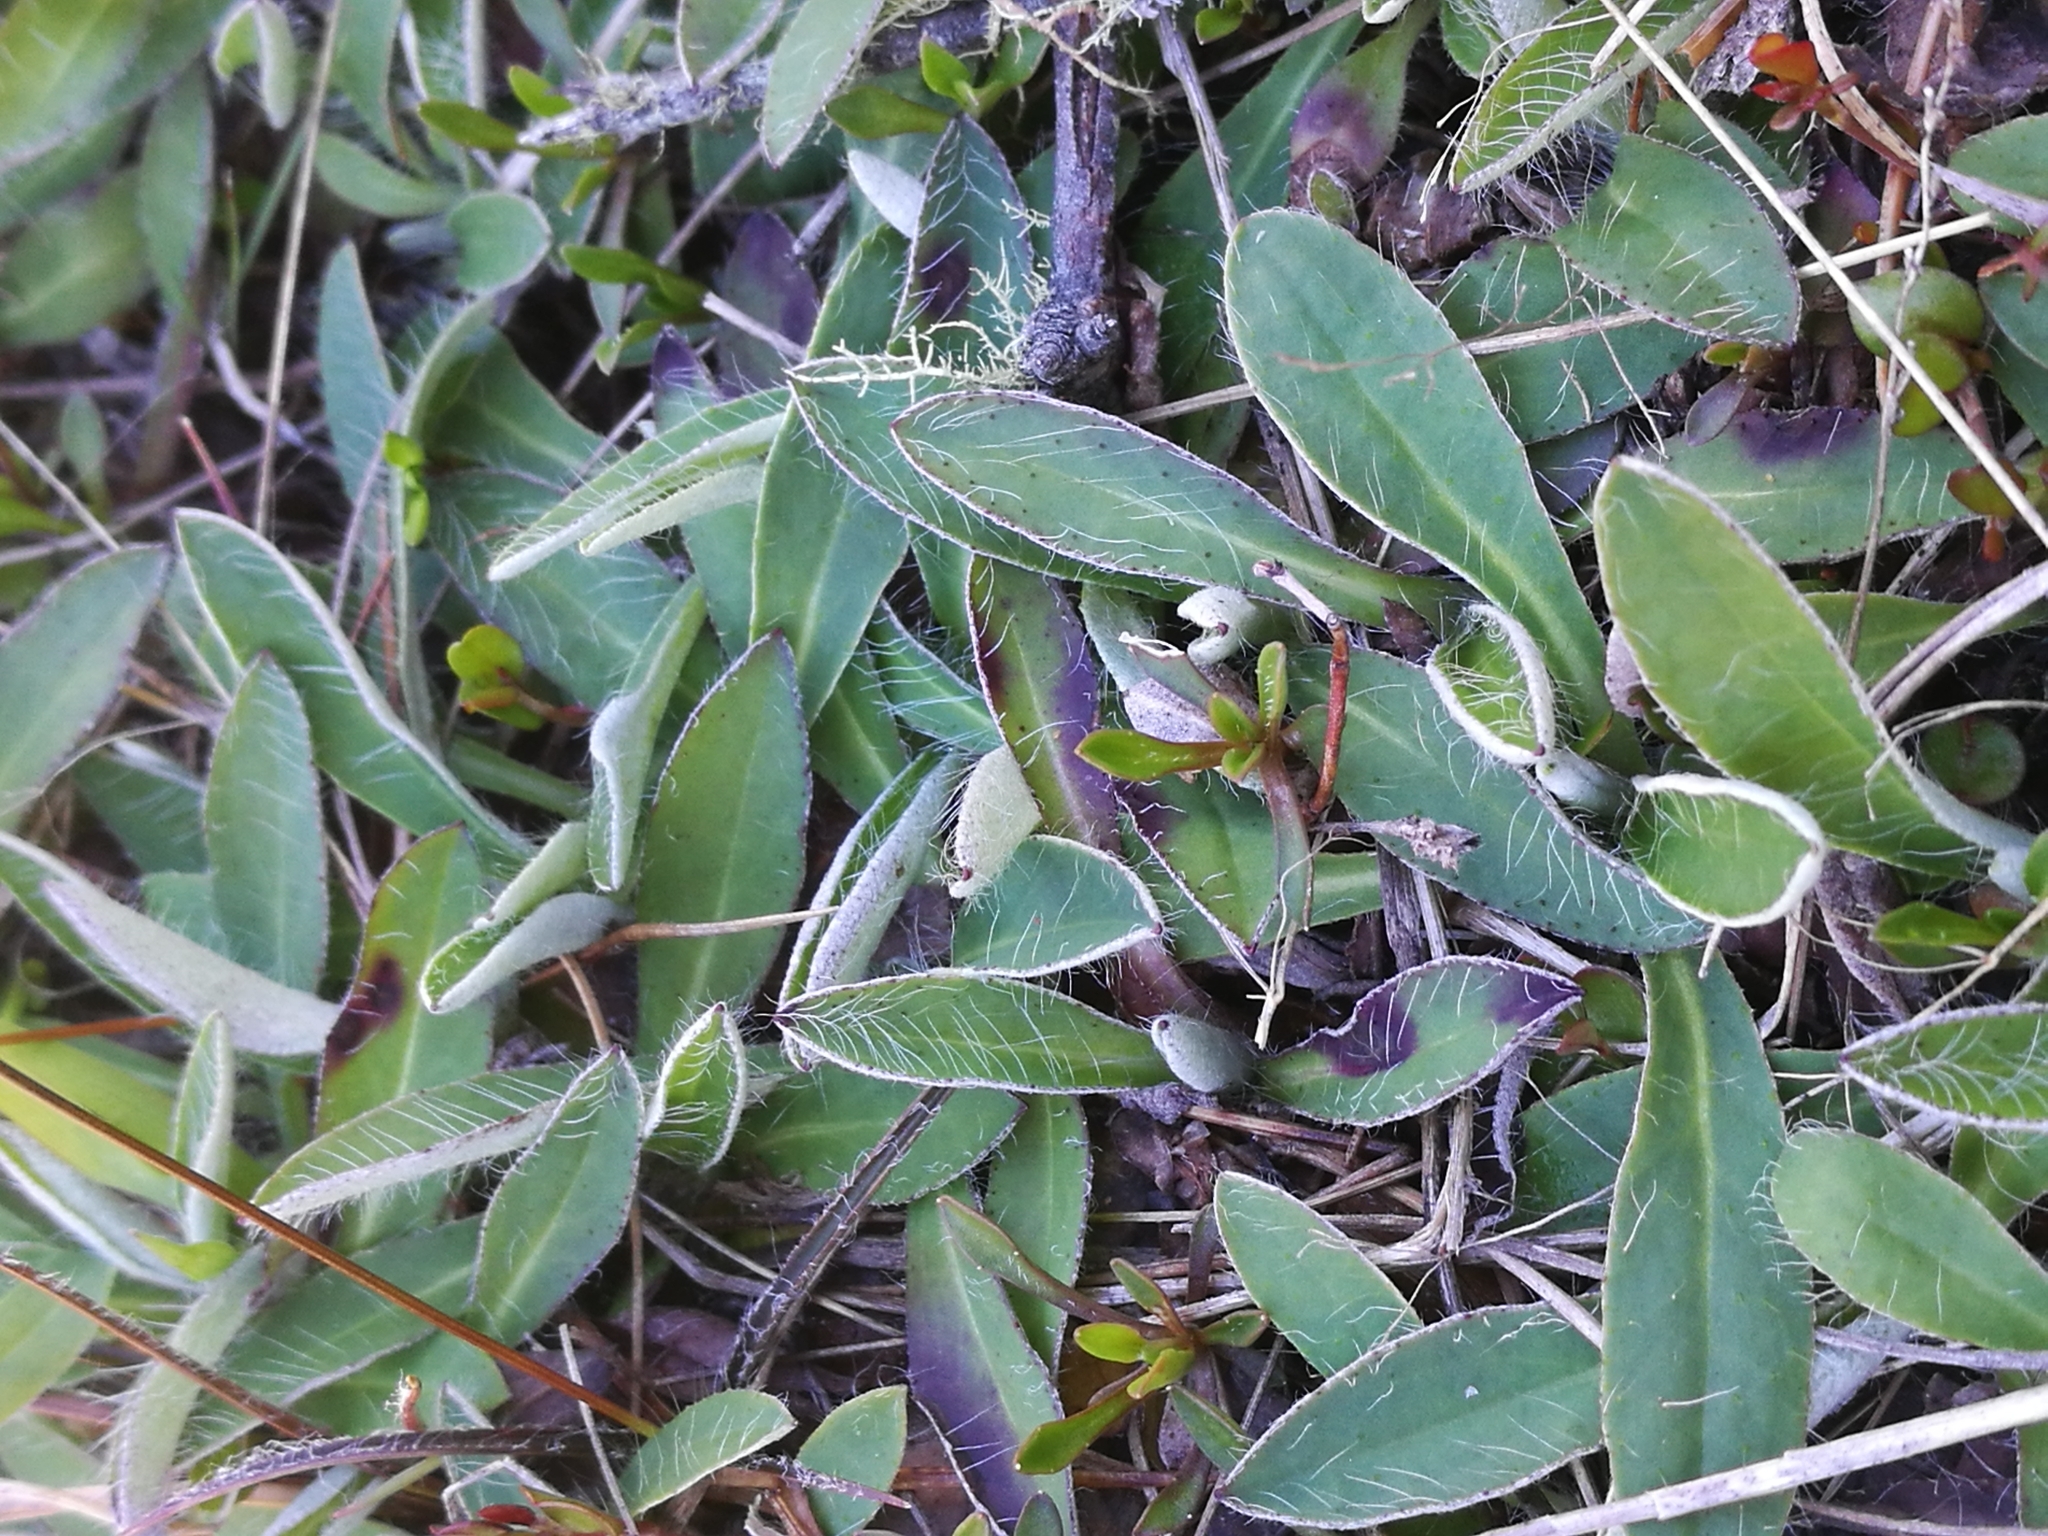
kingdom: Plantae
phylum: Tracheophyta
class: Magnoliopsida
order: Asterales
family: Asteraceae
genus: Pilosella
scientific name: Pilosella officinarum
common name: Mouse-ear hawkweed
